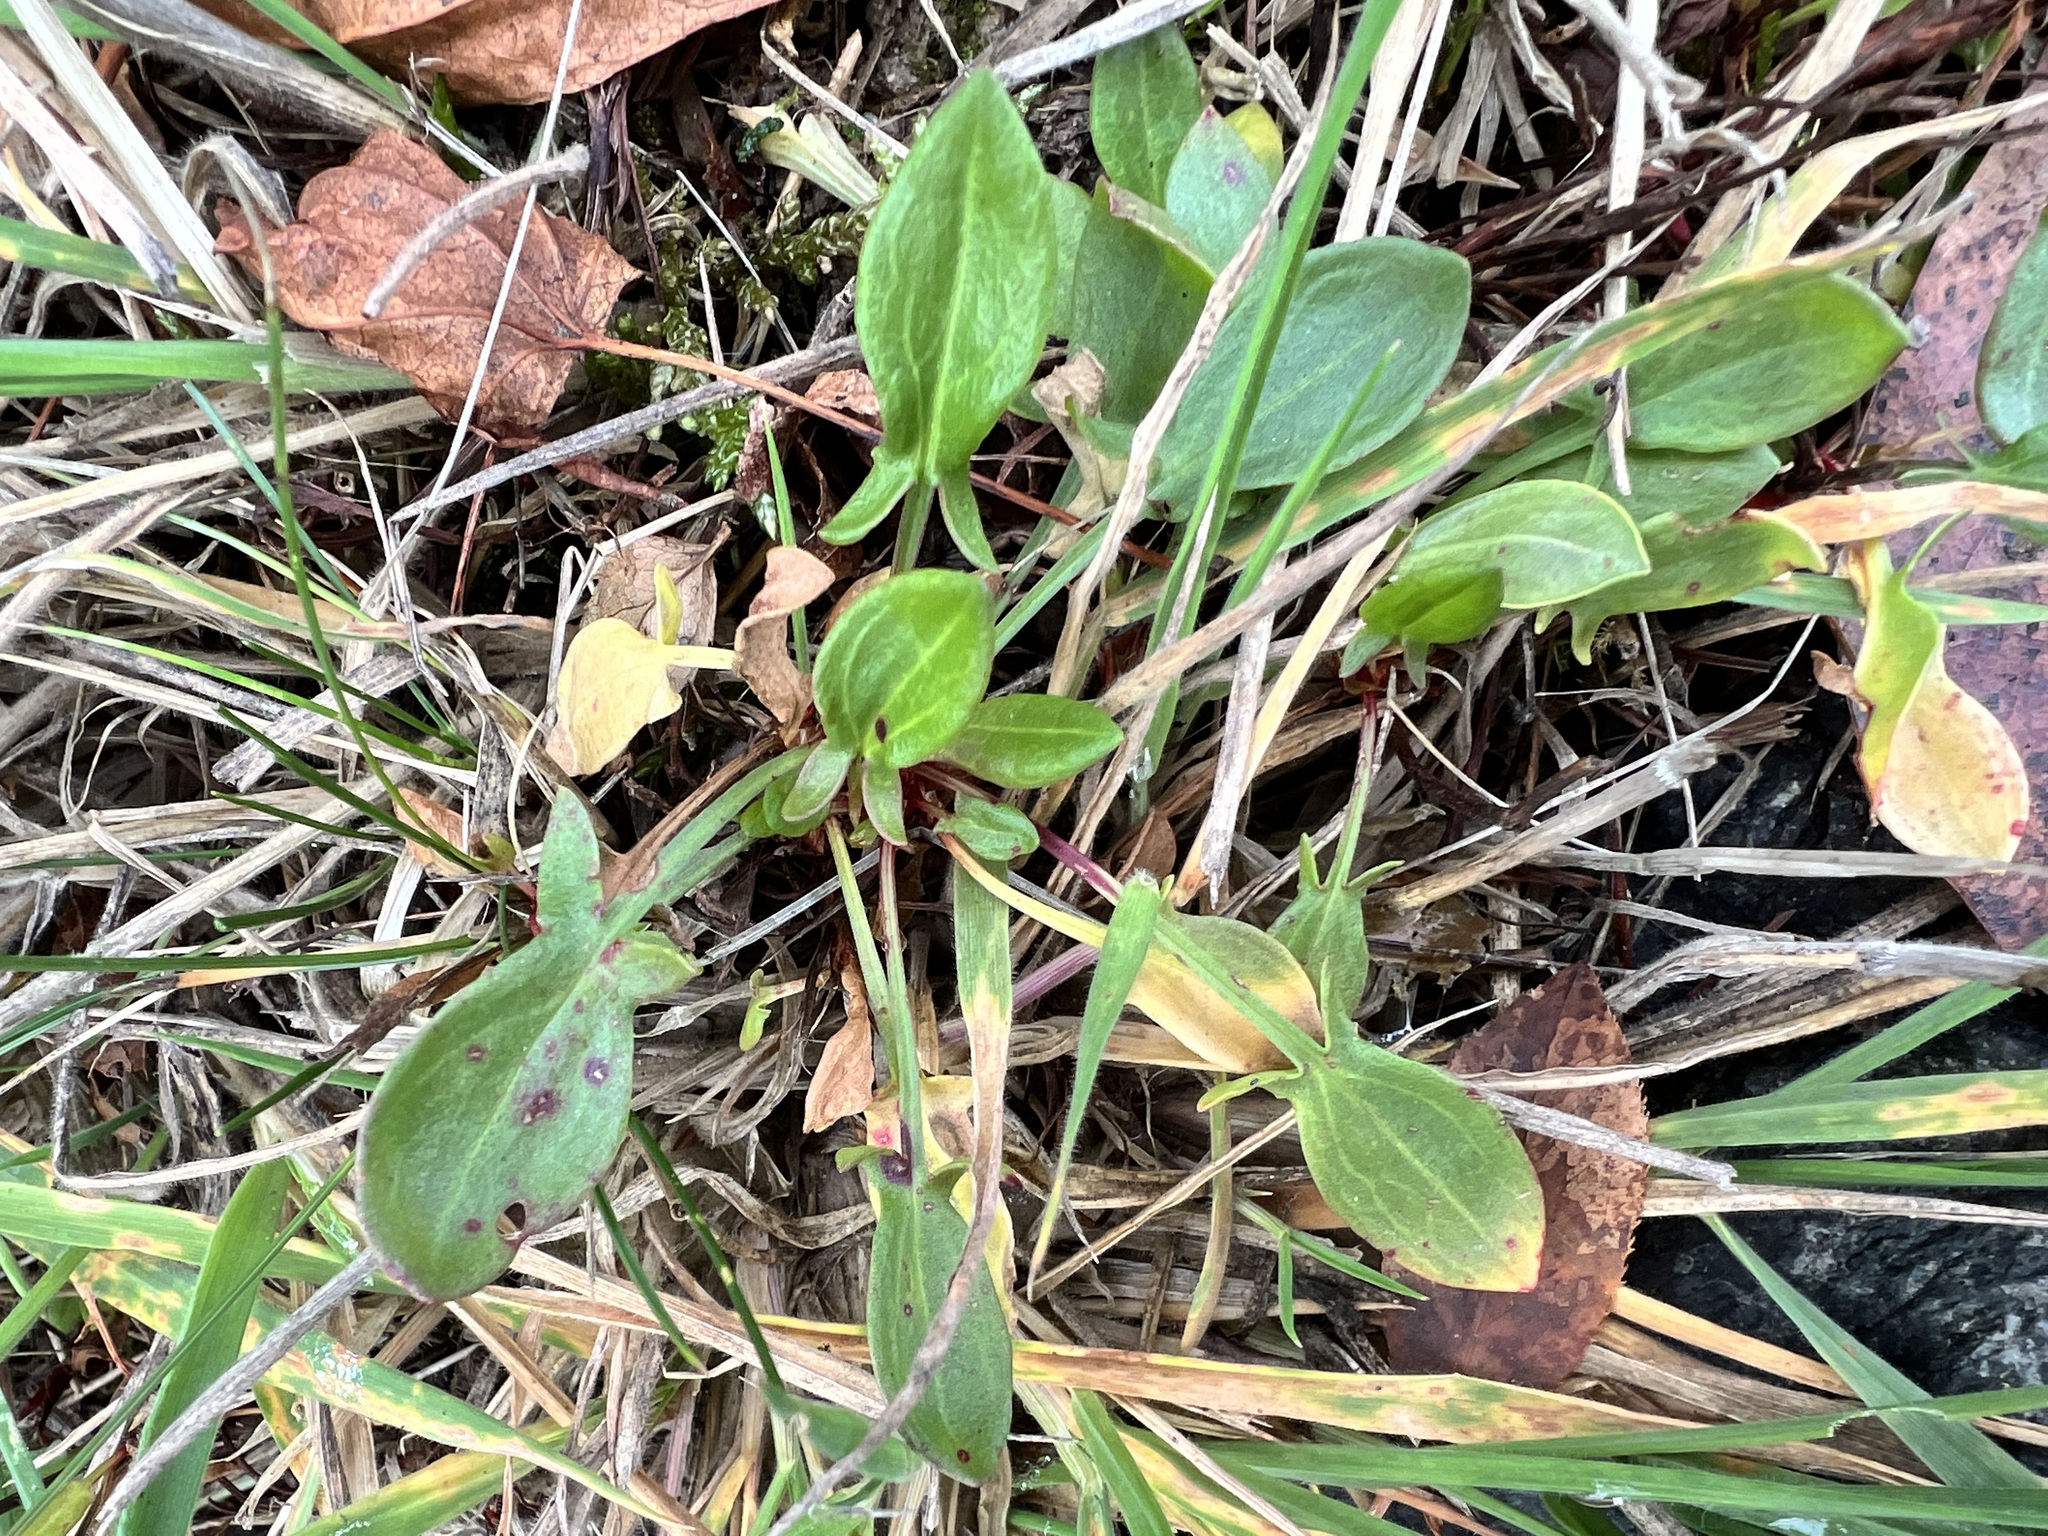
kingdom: Plantae
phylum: Tracheophyta
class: Magnoliopsida
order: Caryophyllales
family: Polygonaceae
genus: Rumex
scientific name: Rumex acetosella
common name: Common sheep sorrel
